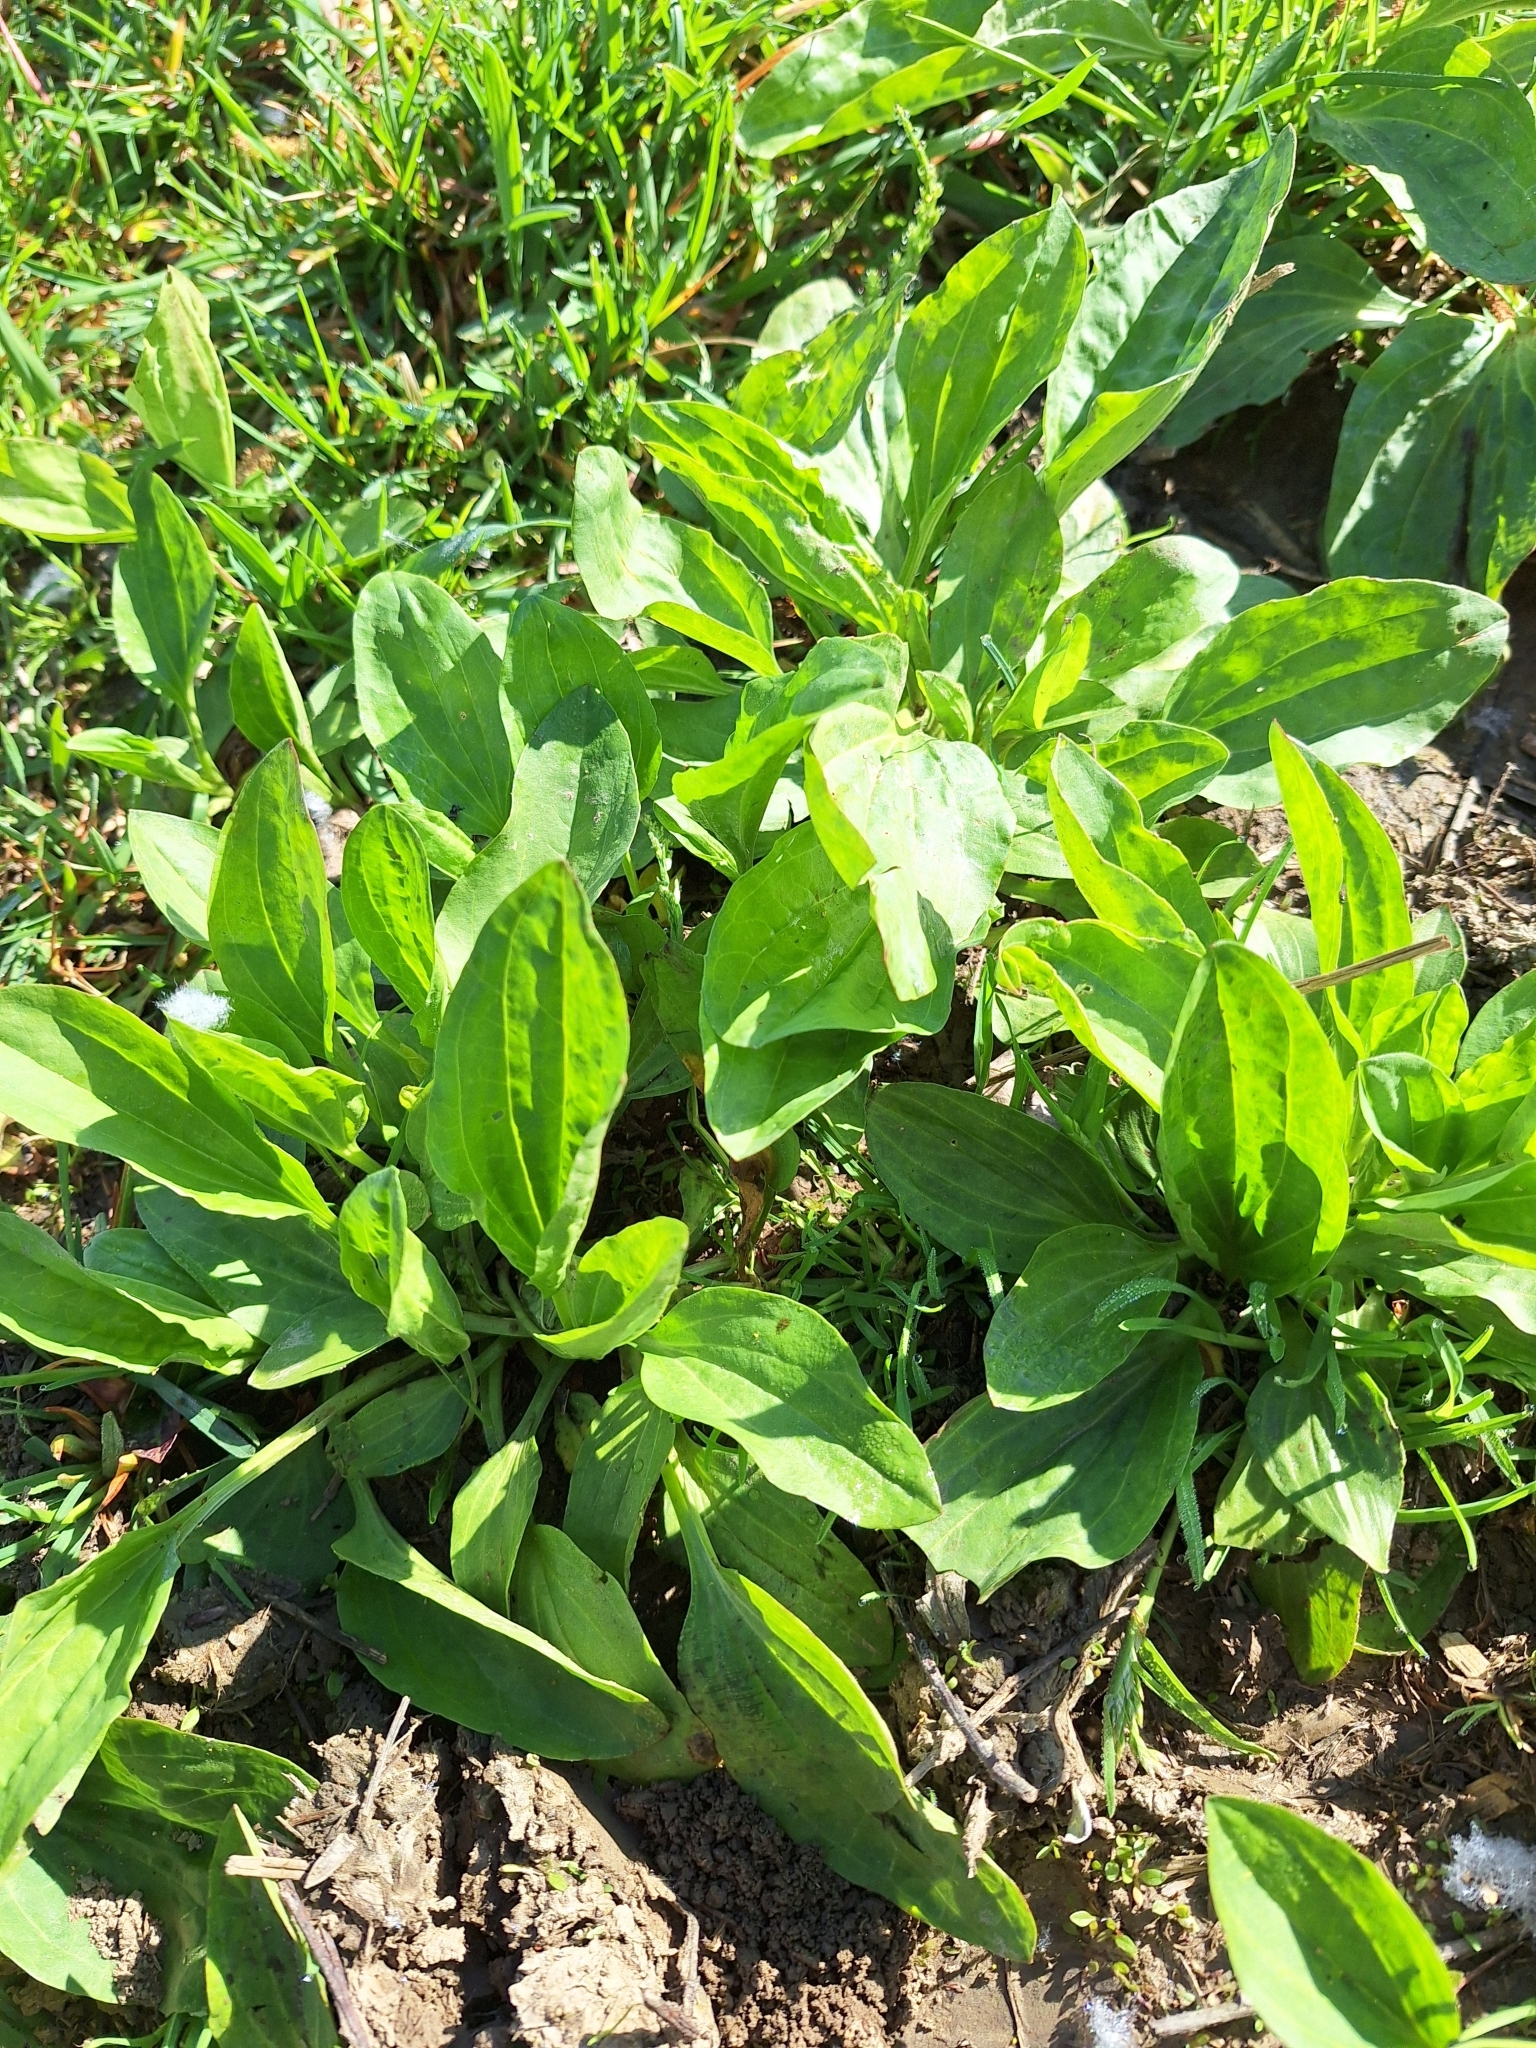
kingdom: Plantae
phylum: Tracheophyta
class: Magnoliopsida
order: Lamiales
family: Plantaginaceae
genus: Plantago
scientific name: Plantago major
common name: Common plantain
